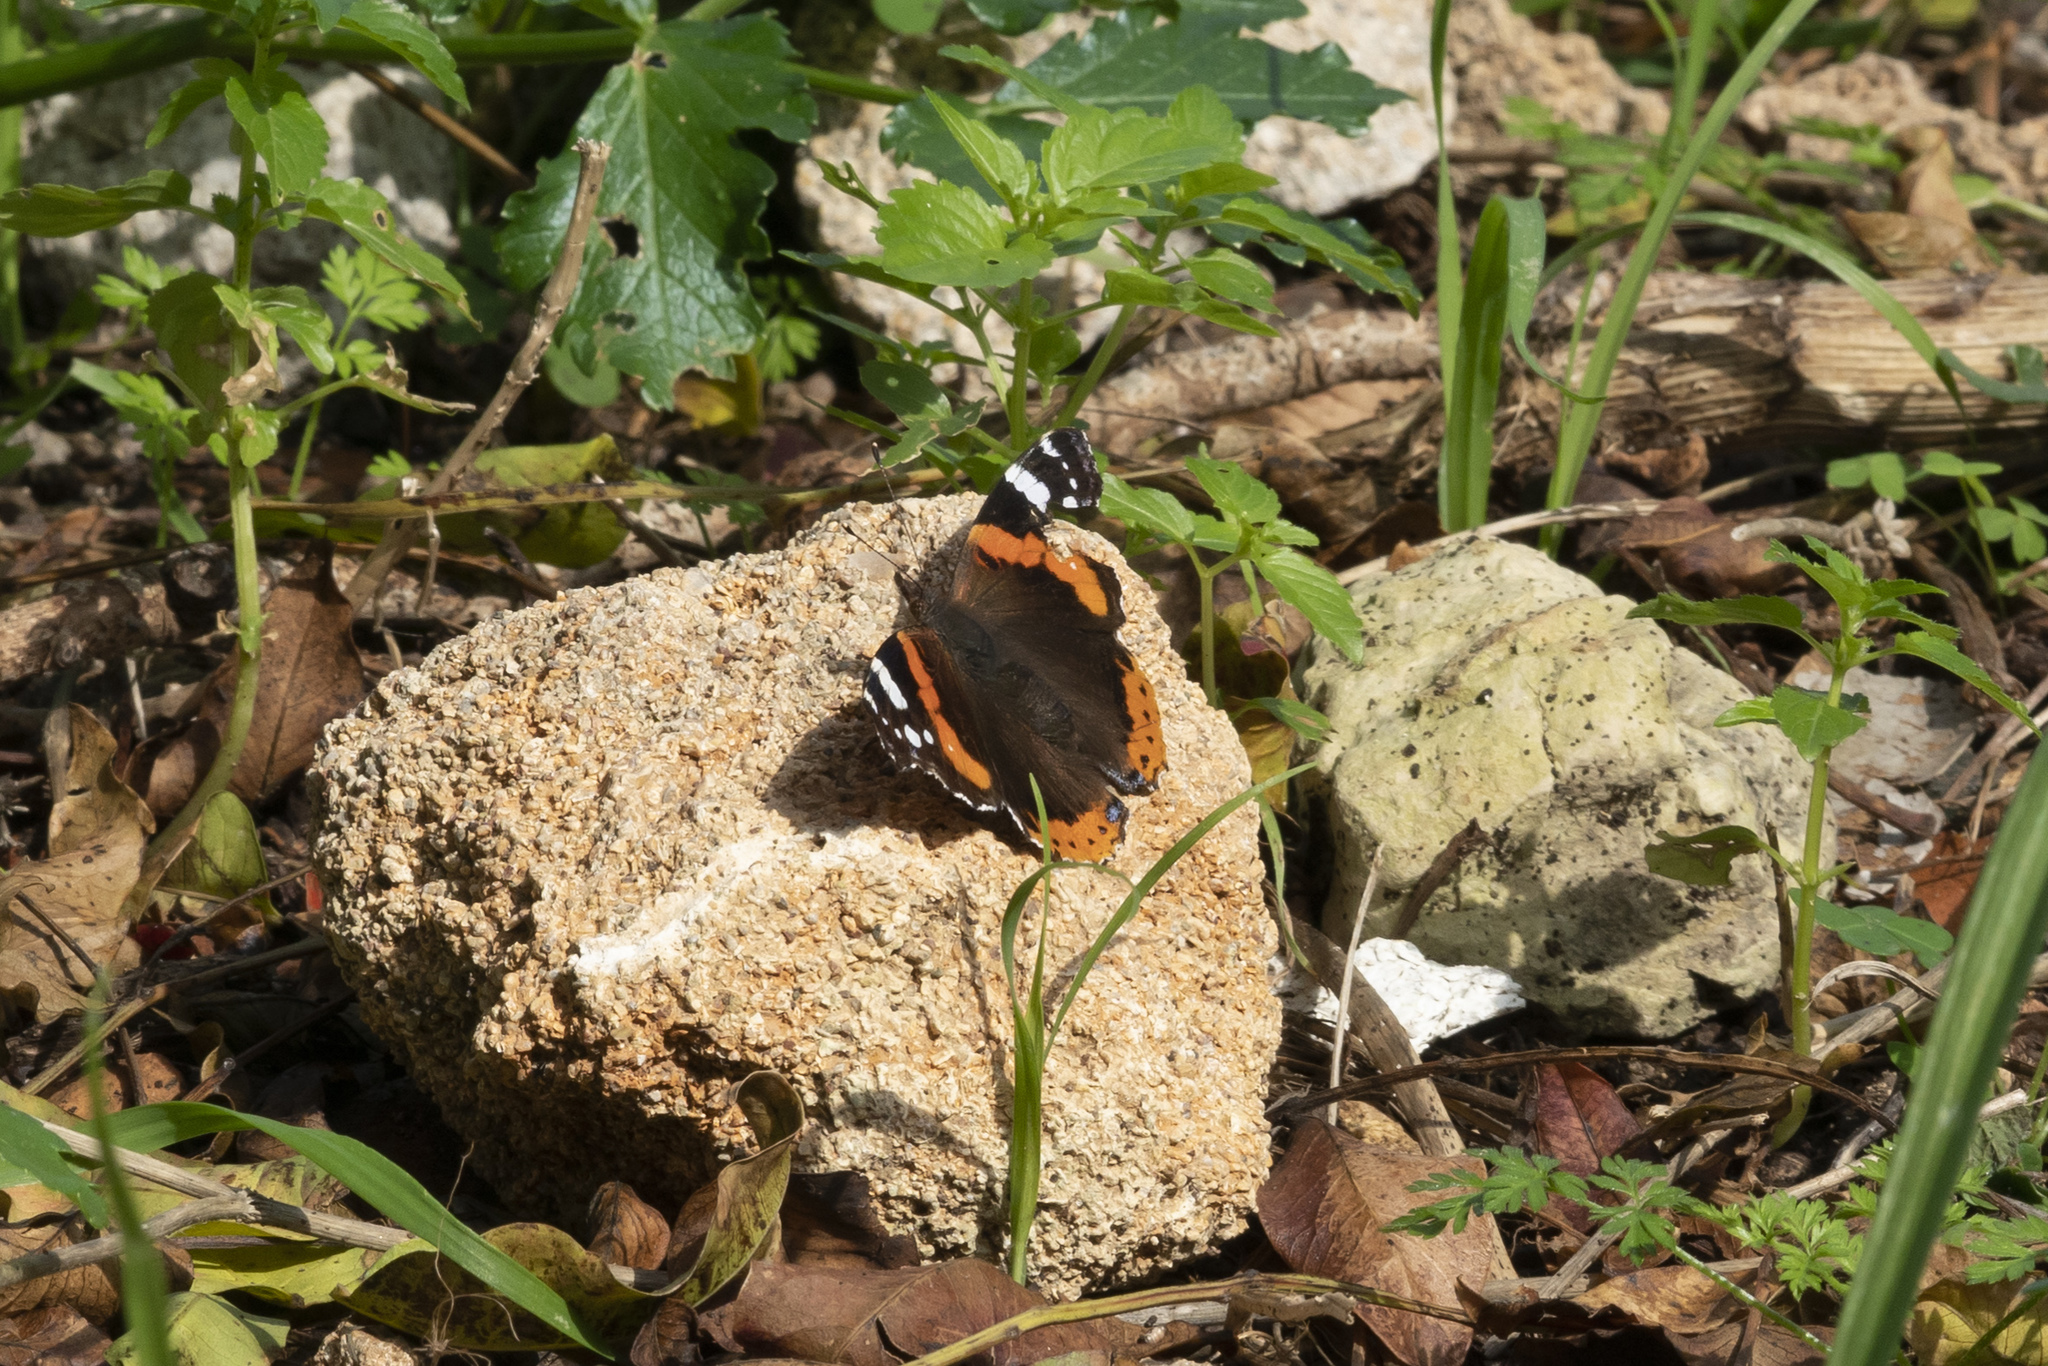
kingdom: Animalia
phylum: Arthropoda
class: Insecta
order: Lepidoptera
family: Nymphalidae
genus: Vanessa
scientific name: Vanessa atalanta
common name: Red admiral
